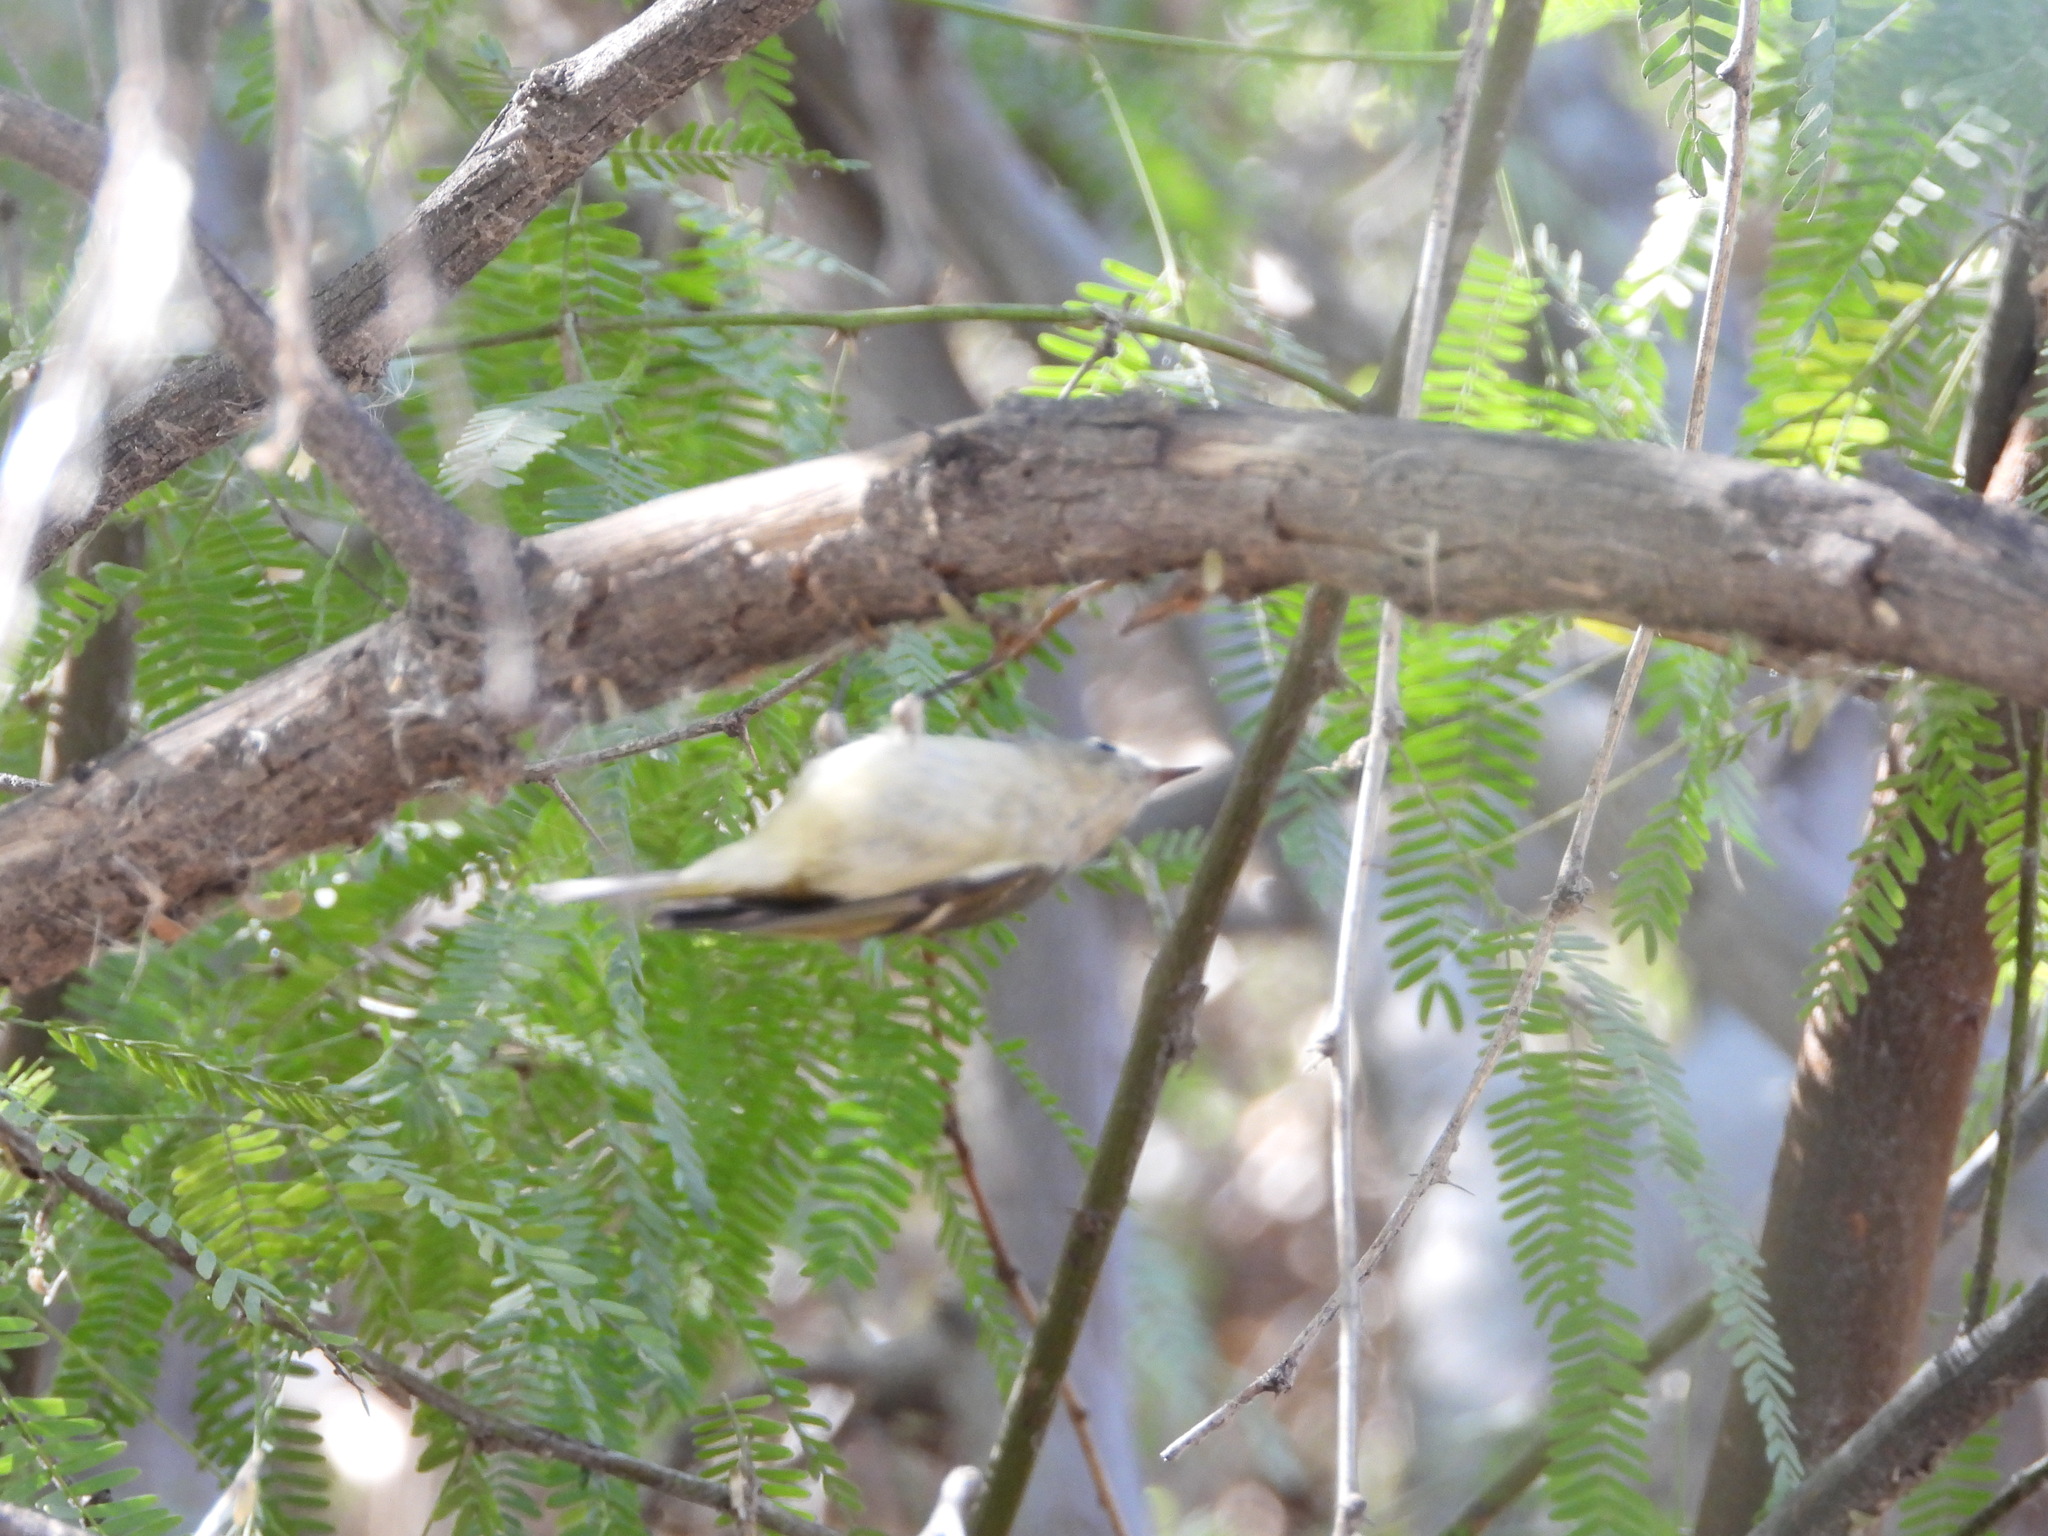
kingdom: Animalia
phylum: Chordata
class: Aves
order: Passeriformes
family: Regulidae
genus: Regulus
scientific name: Regulus calendula
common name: Ruby-crowned kinglet
